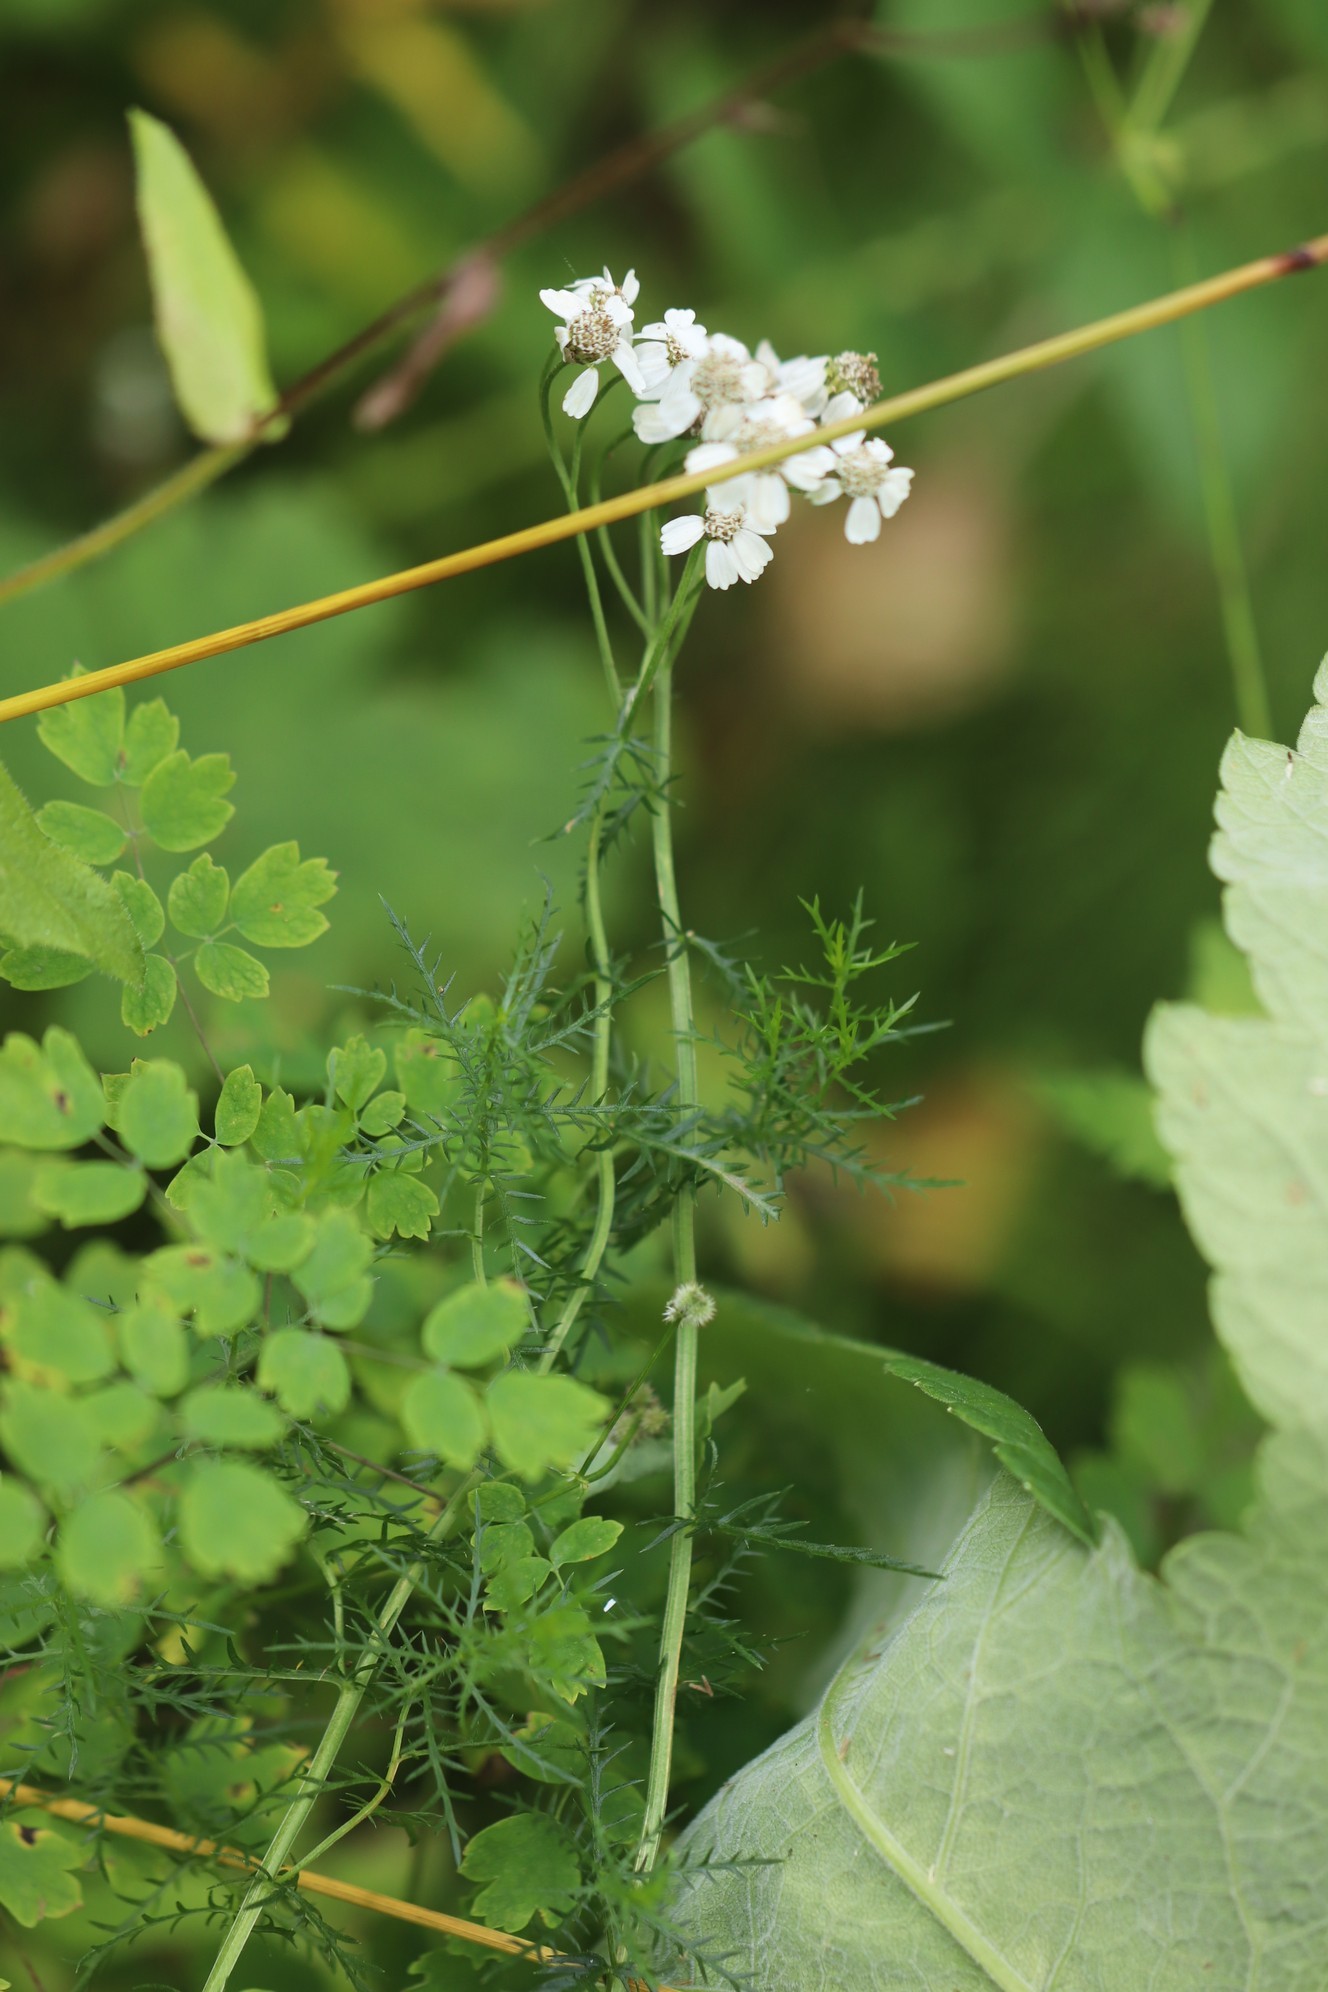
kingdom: Plantae
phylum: Tracheophyta
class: Magnoliopsida
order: Asterales
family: Asteraceae
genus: Achillea
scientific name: Achillea impatiens
